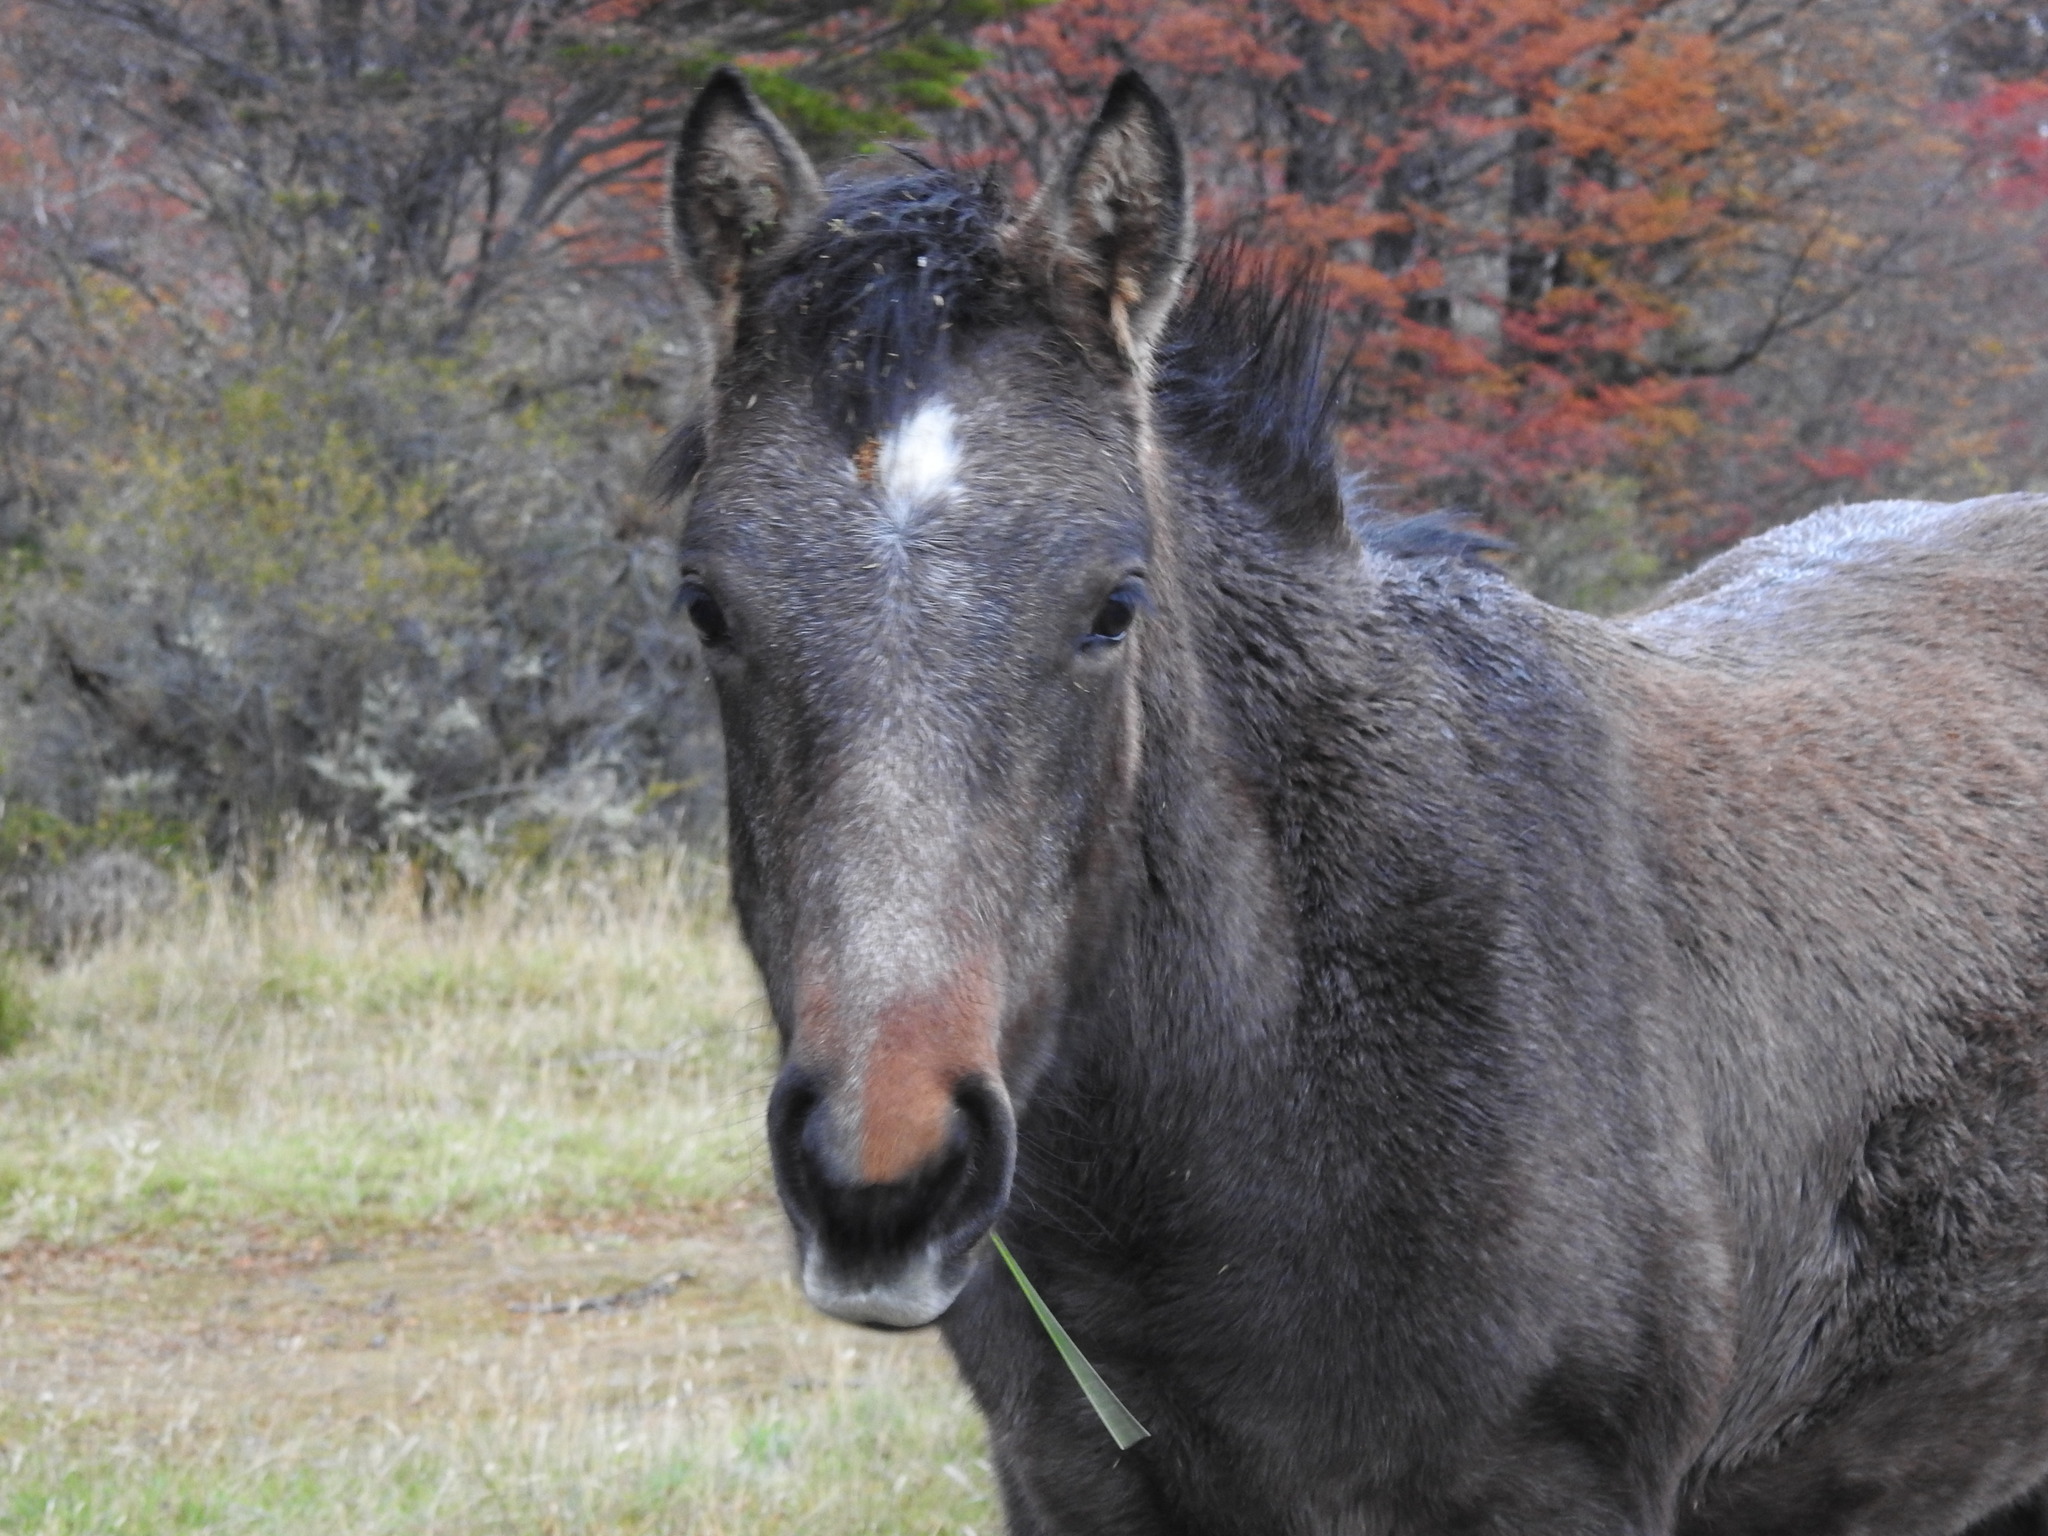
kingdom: Animalia
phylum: Chordata
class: Mammalia
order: Perissodactyla
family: Equidae
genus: Equus
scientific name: Equus caballus
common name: Horse
